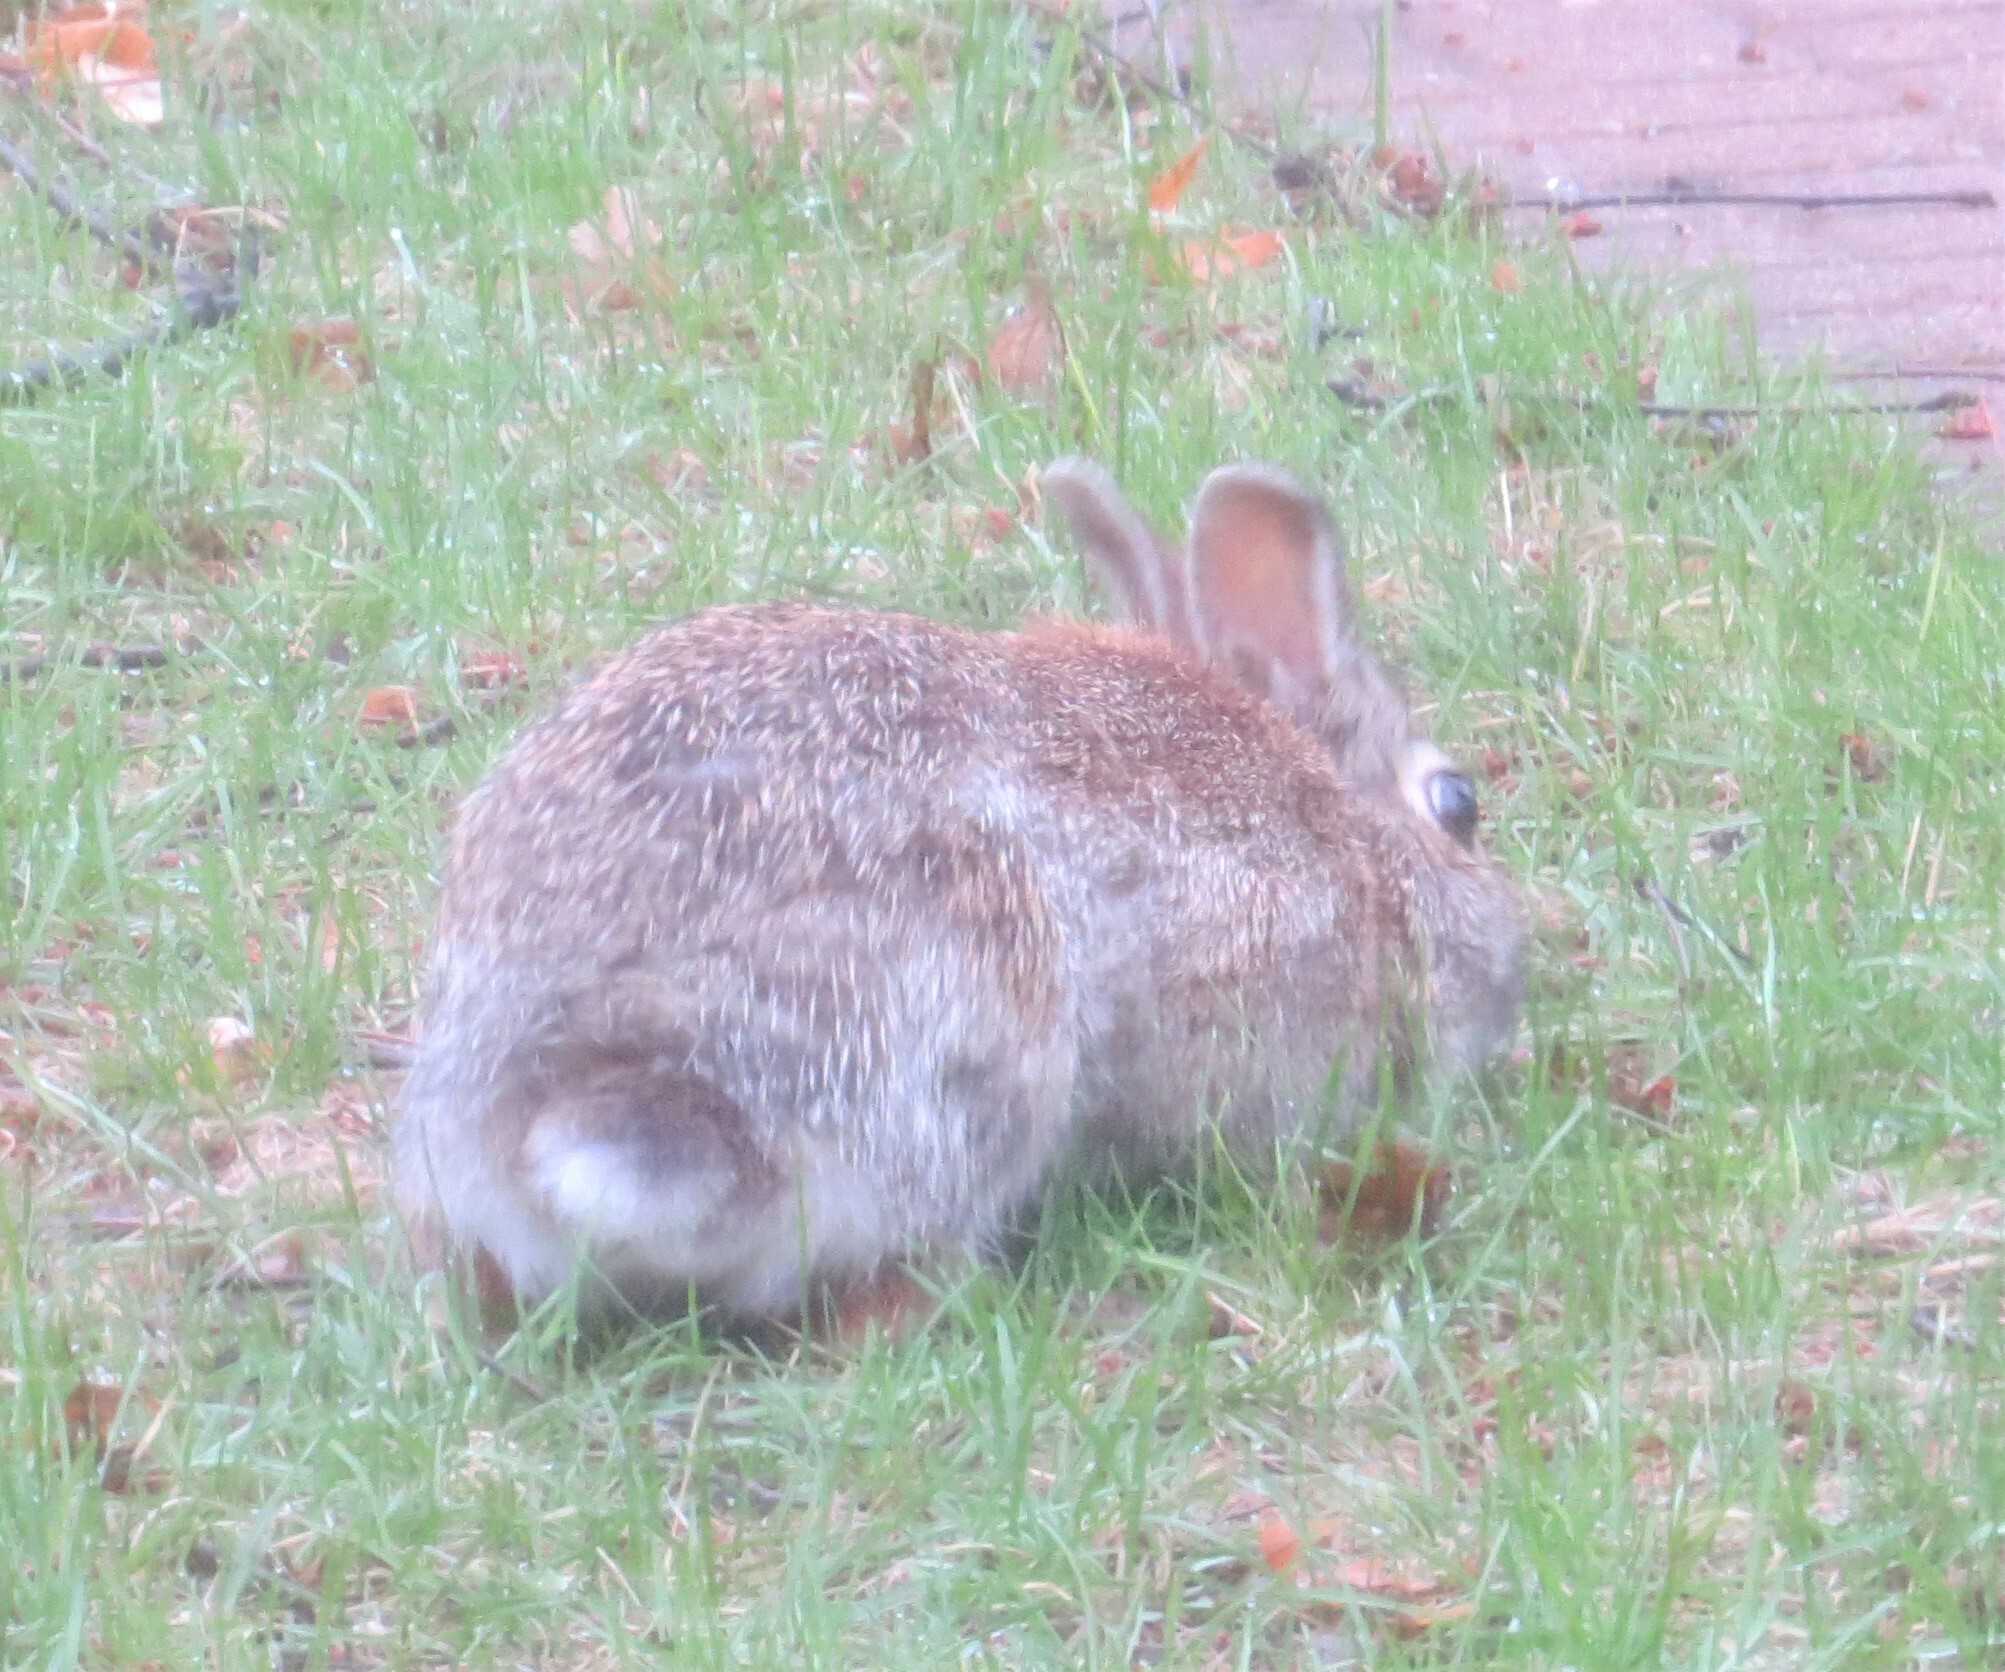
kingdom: Animalia
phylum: Chordata
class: Mammalia
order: Lagomorpha
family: Leporidae
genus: Sylvilagus
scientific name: Sylvilagus floridanus
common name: Eastern cottontail
